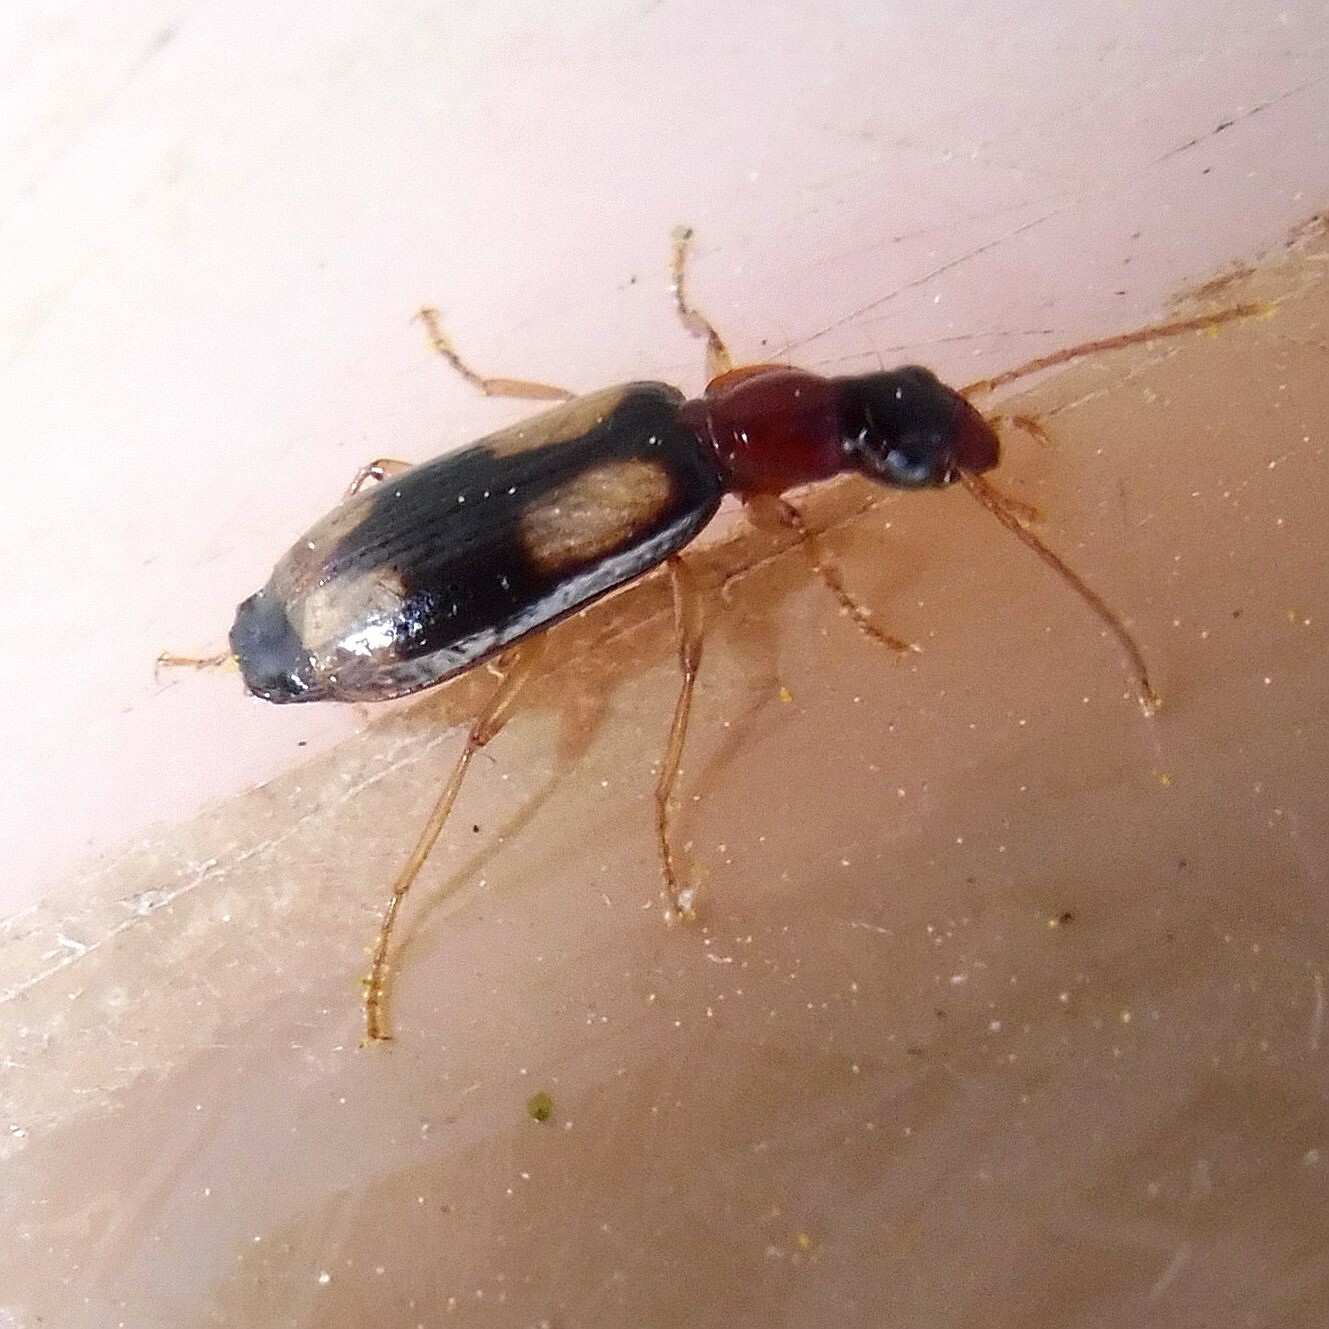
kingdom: Animalia
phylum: Arthropoda
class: Insecta
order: Coleoptera
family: Carabidae
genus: Dromius
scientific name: Dromius quadrimaculatus
